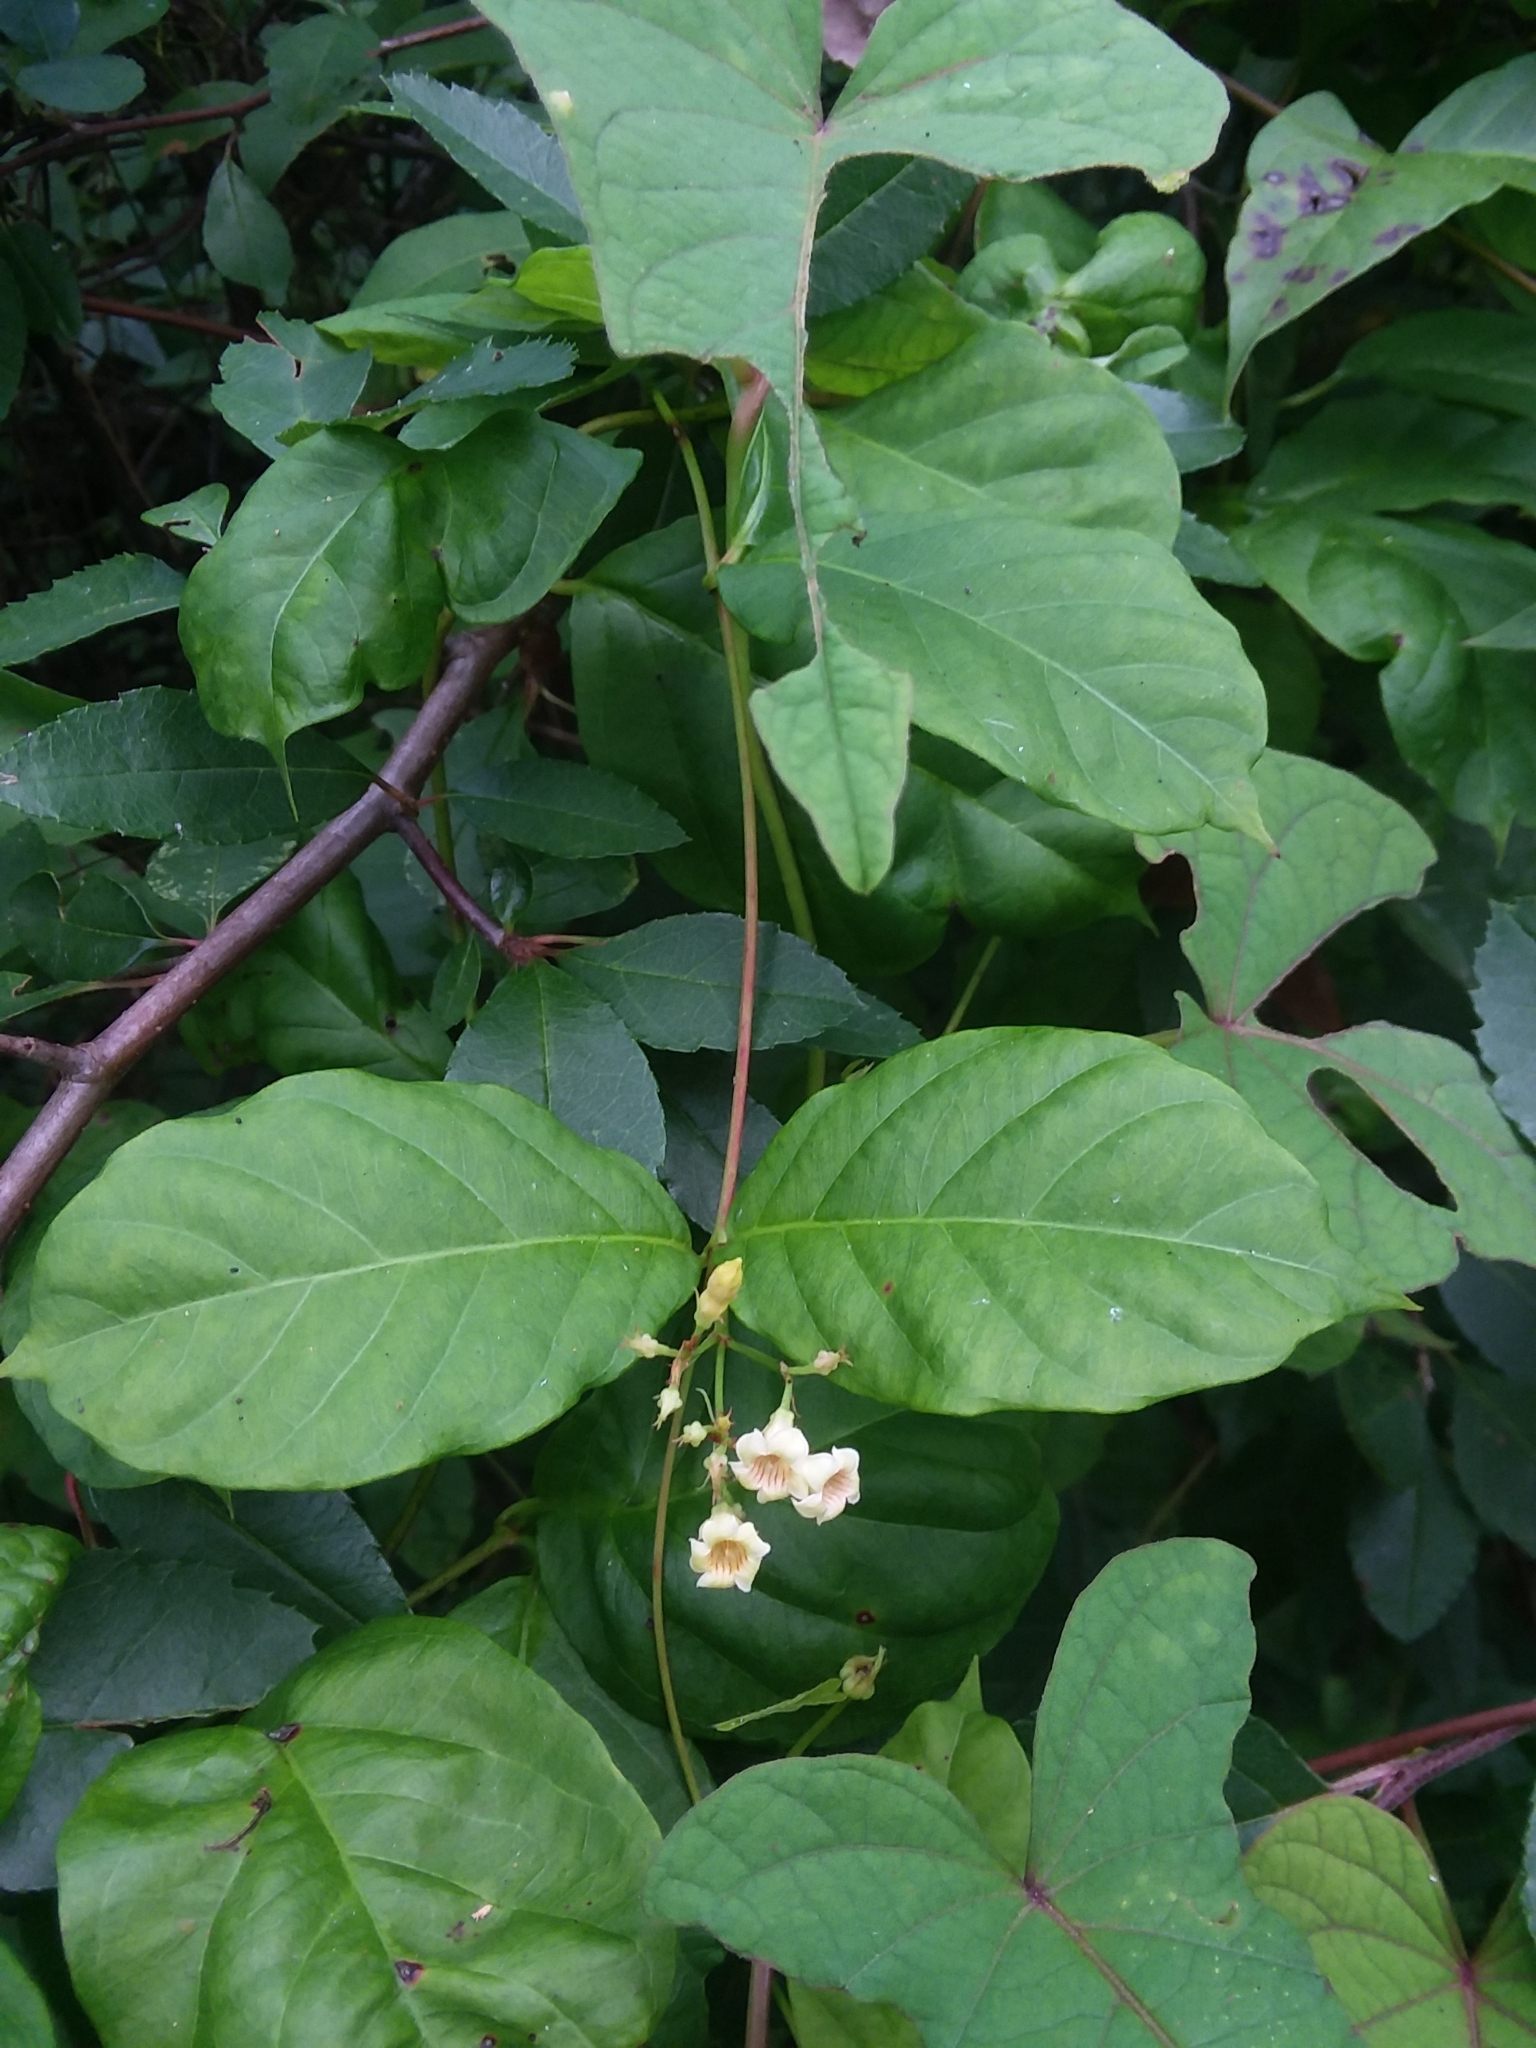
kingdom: Plantae
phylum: Tracheophyta
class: Magnoliopsida
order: Gentianales
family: Apocynaceae
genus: Thyrsanthella
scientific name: Thyrsanthella difformis
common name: Climbing dogbane
